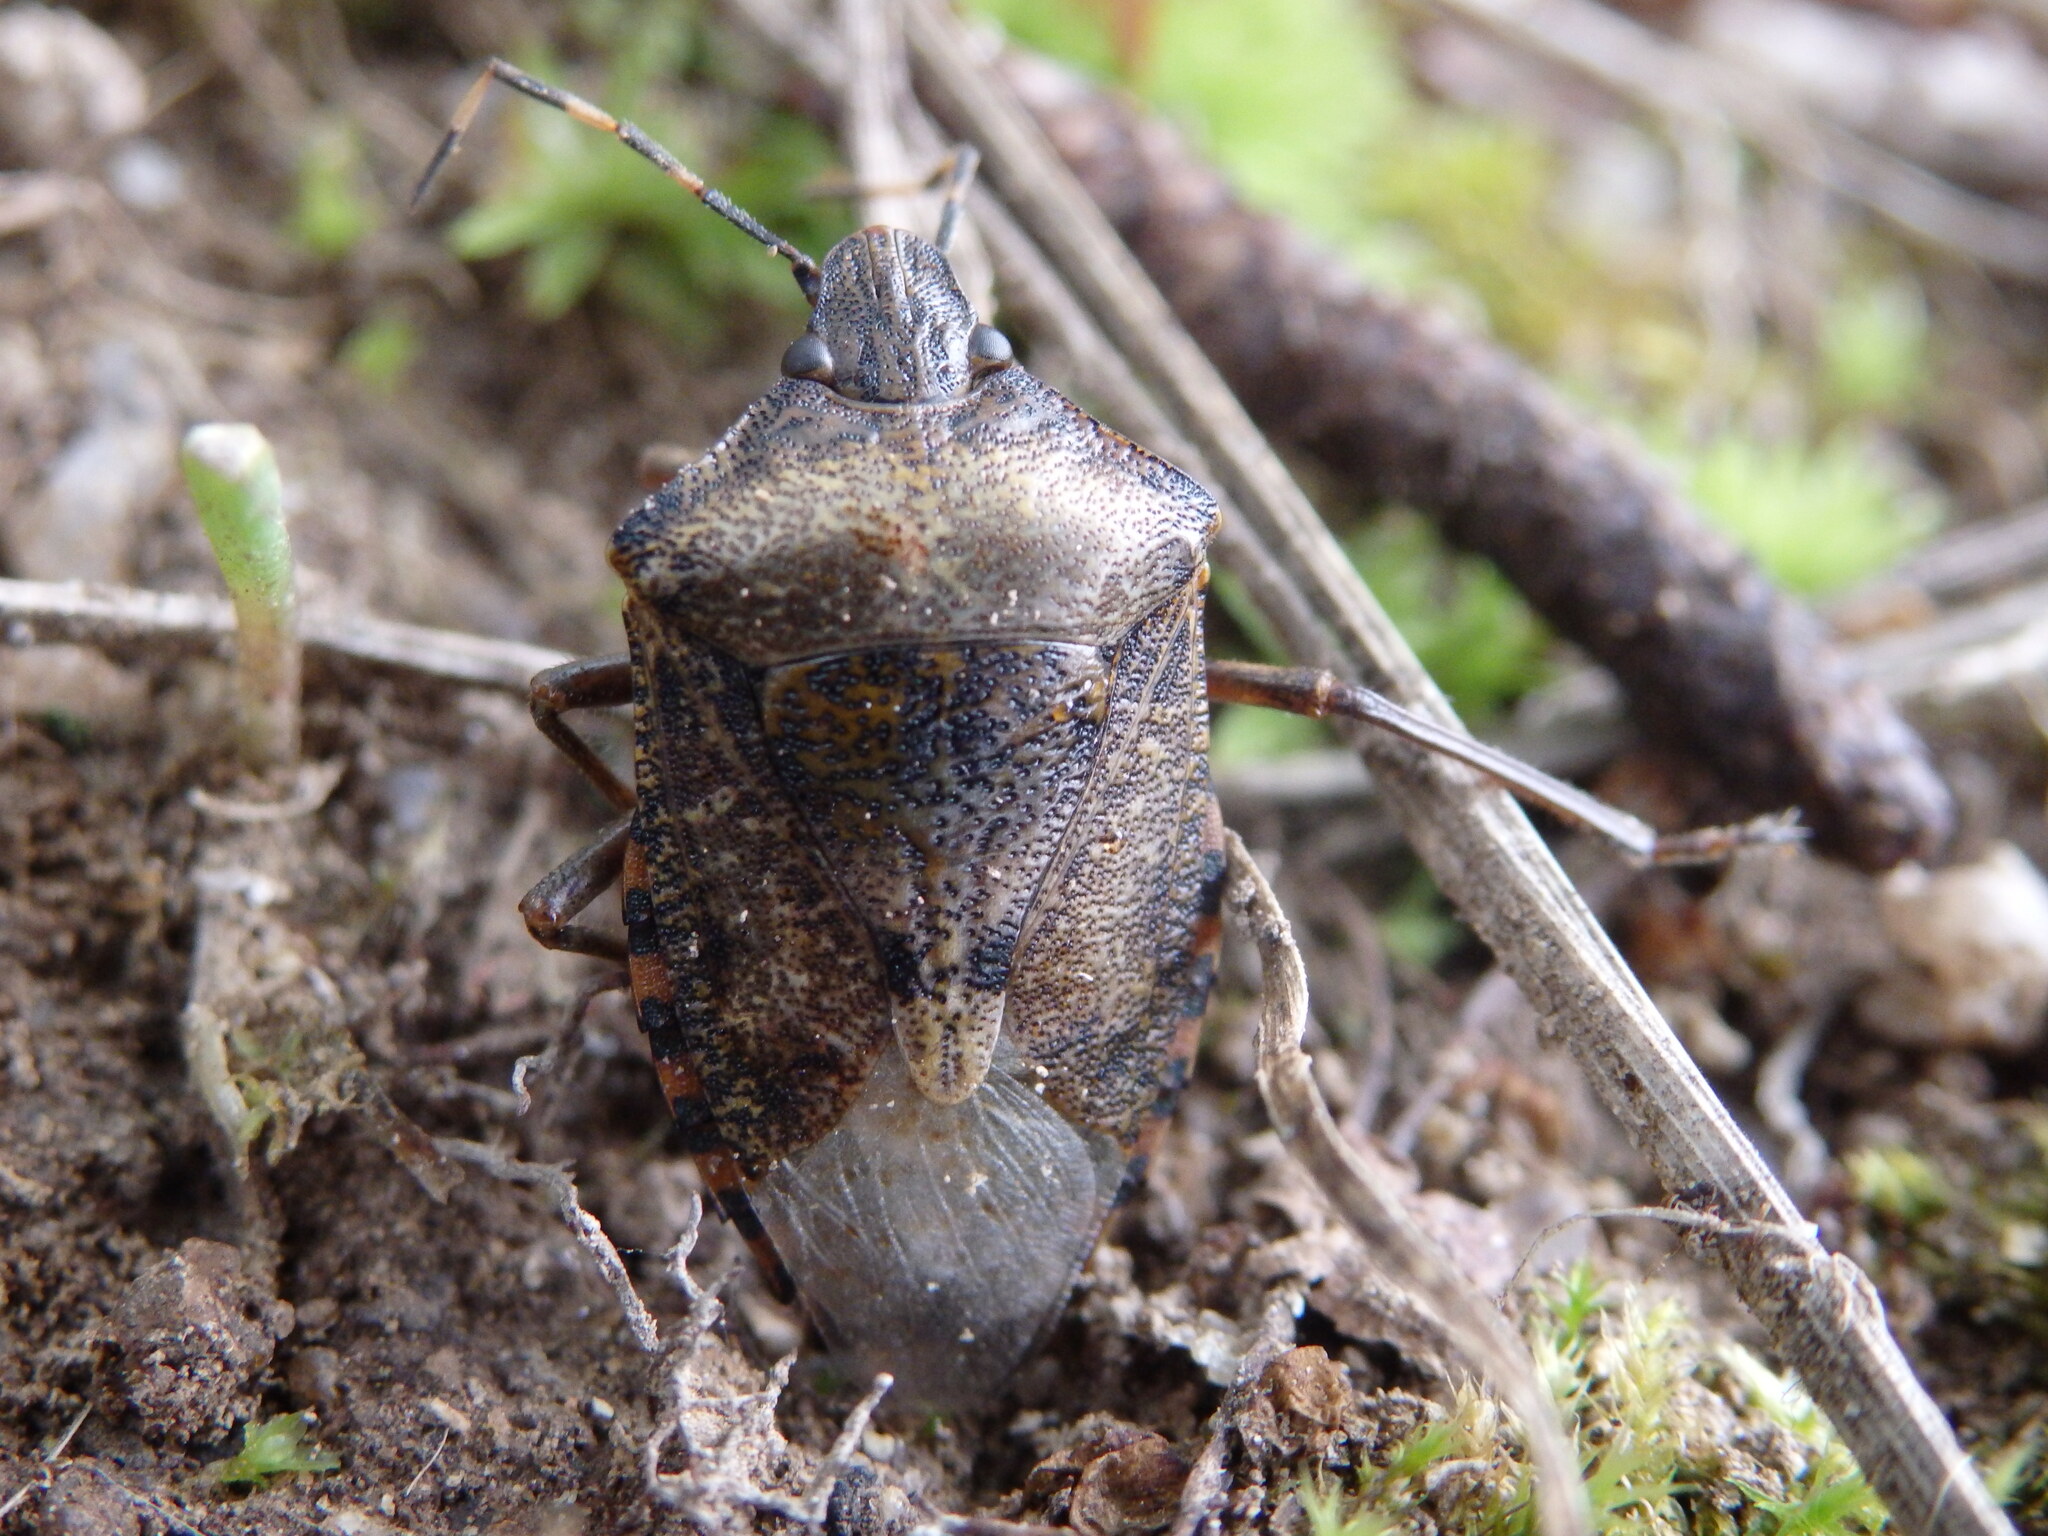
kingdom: Animalia
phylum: Arthropoda
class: Insecta
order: Hemiptera
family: Pentatomidae
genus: Rhaphigaster
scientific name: Rhaphigaster nebulosa
